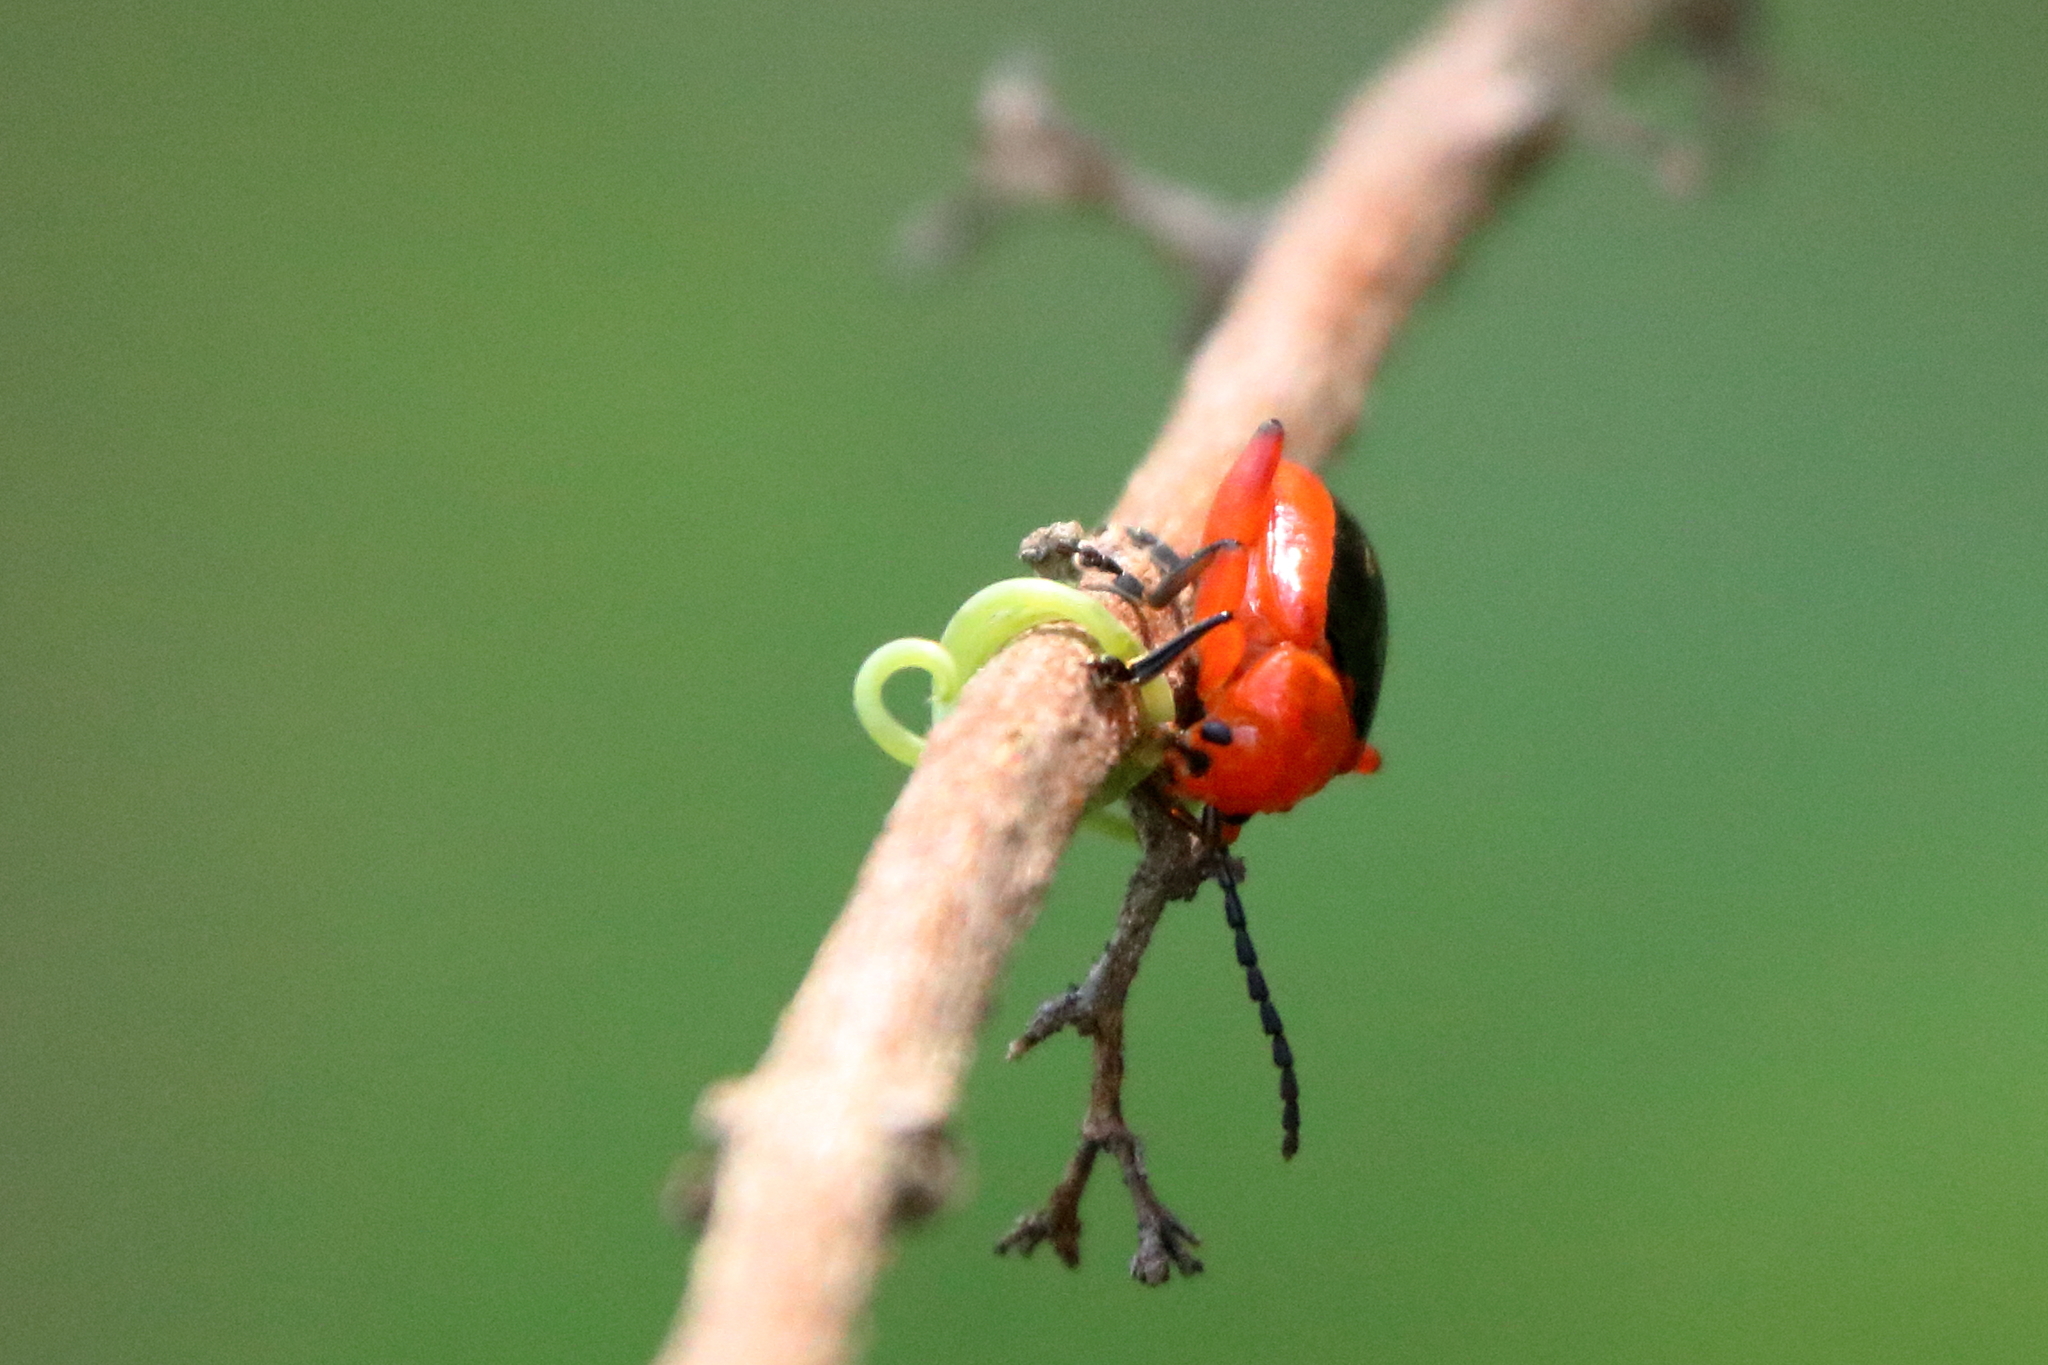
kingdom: Animalia
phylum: Arthropoda
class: Insecta
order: Coleoptera
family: Chrysomelidae
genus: Disonycha
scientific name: Disonycha discoidea
